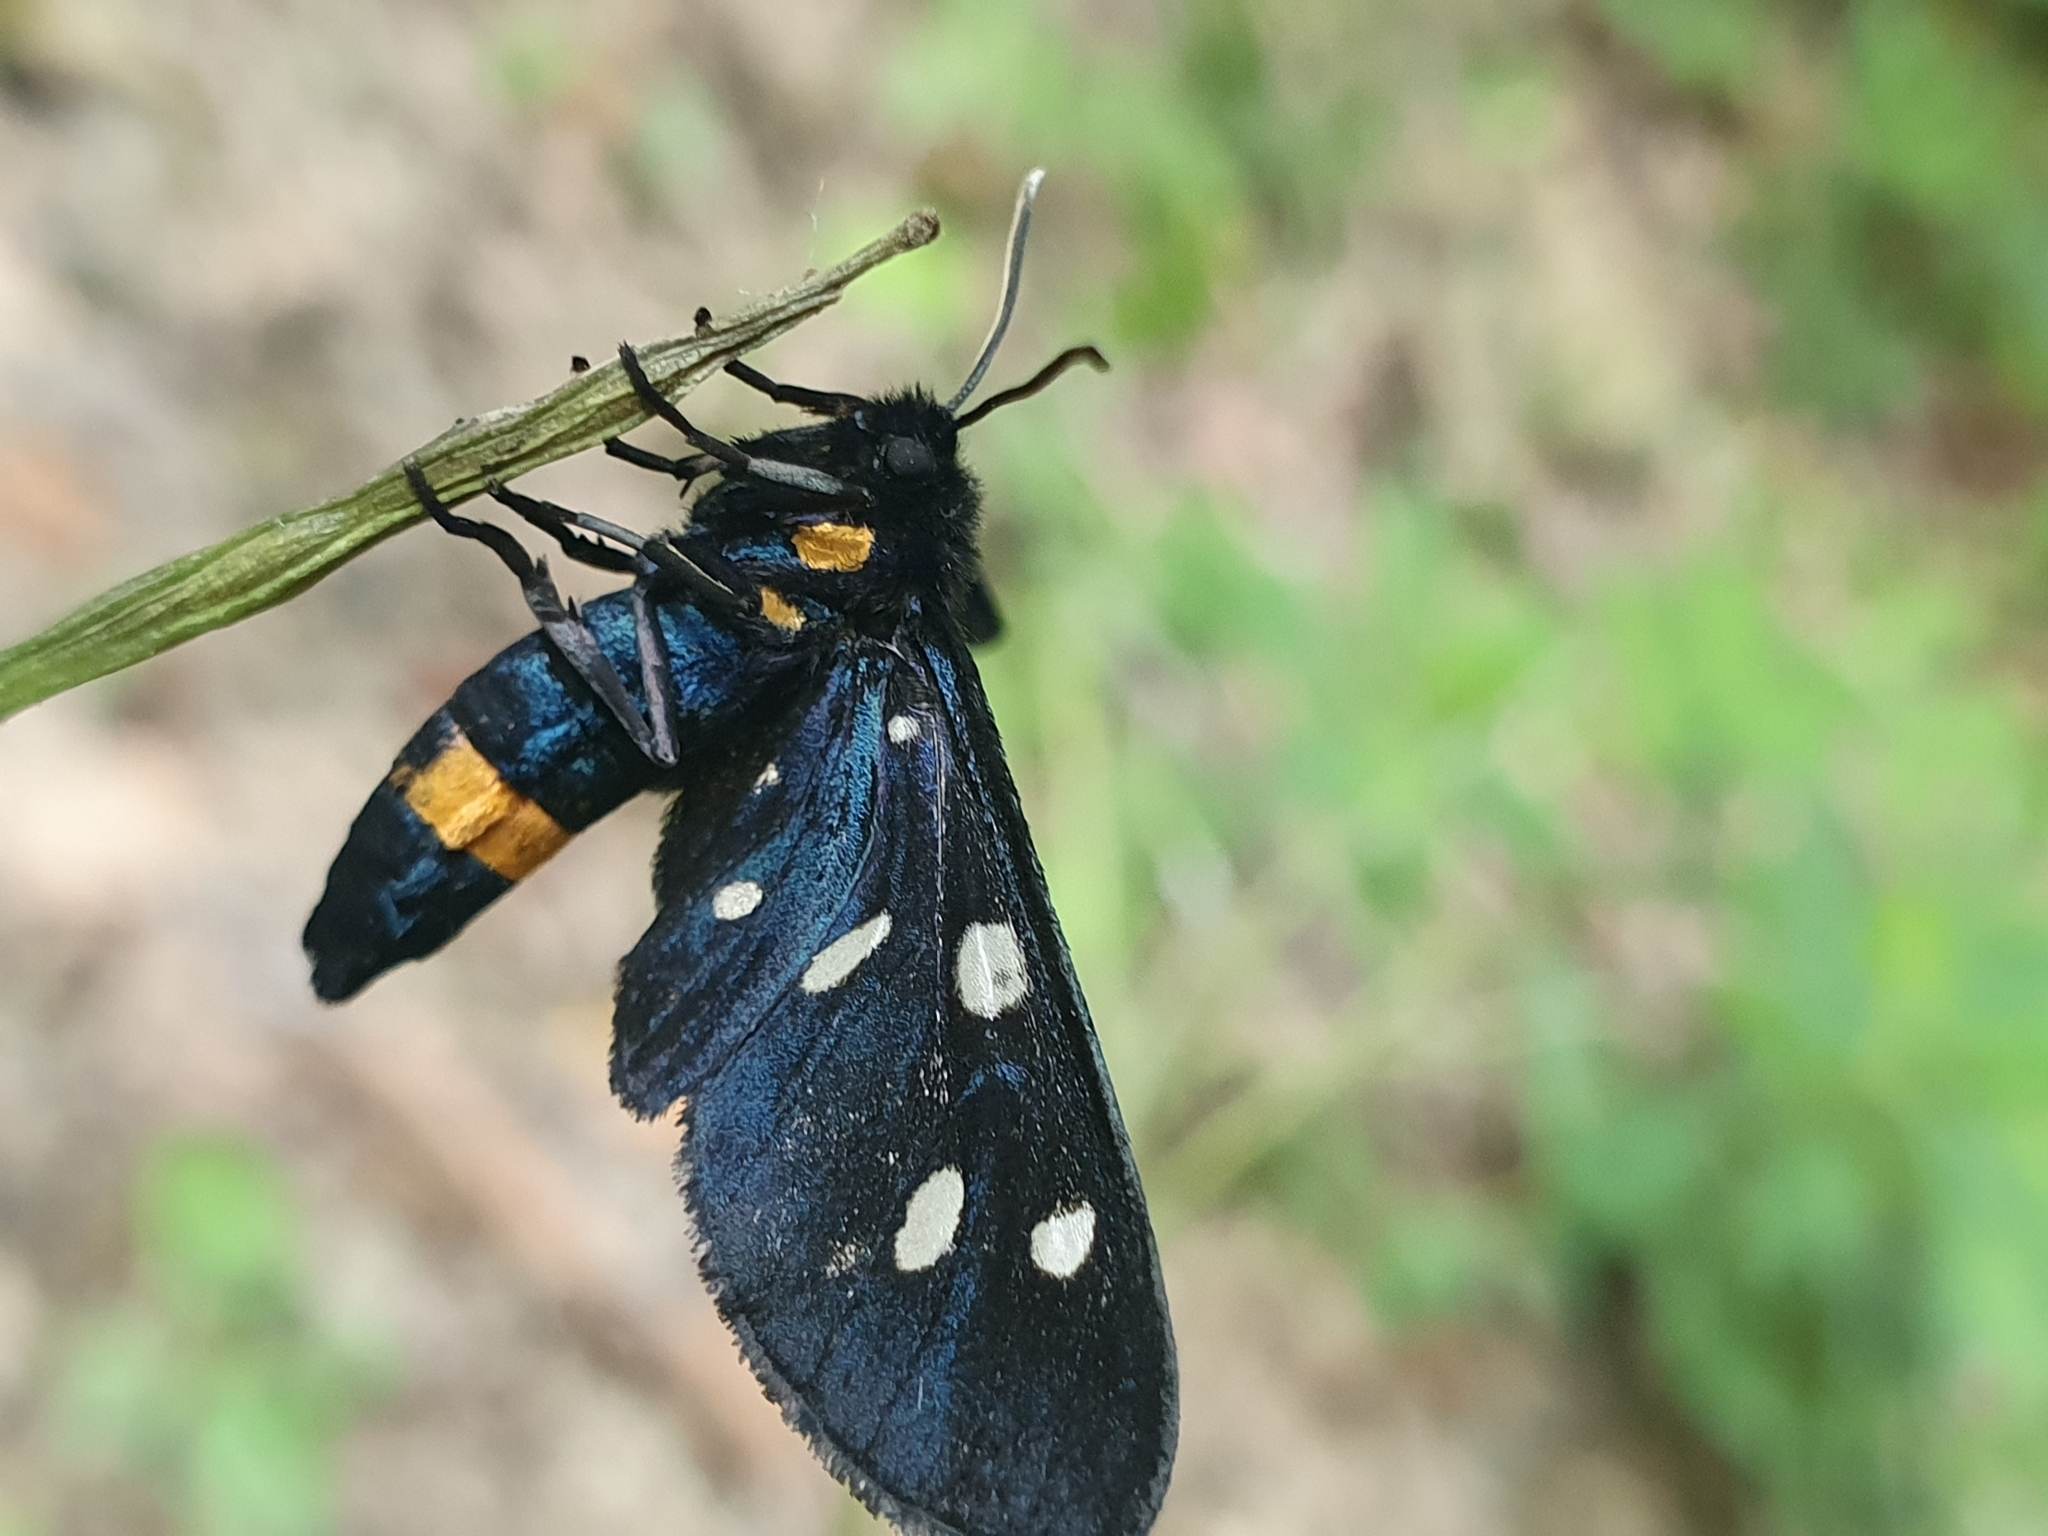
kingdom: Animalia
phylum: Arthropoda
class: Insecta
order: Lepidoptera
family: Erebidae
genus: Amata
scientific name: Amata phegea
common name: Nine-spotted
